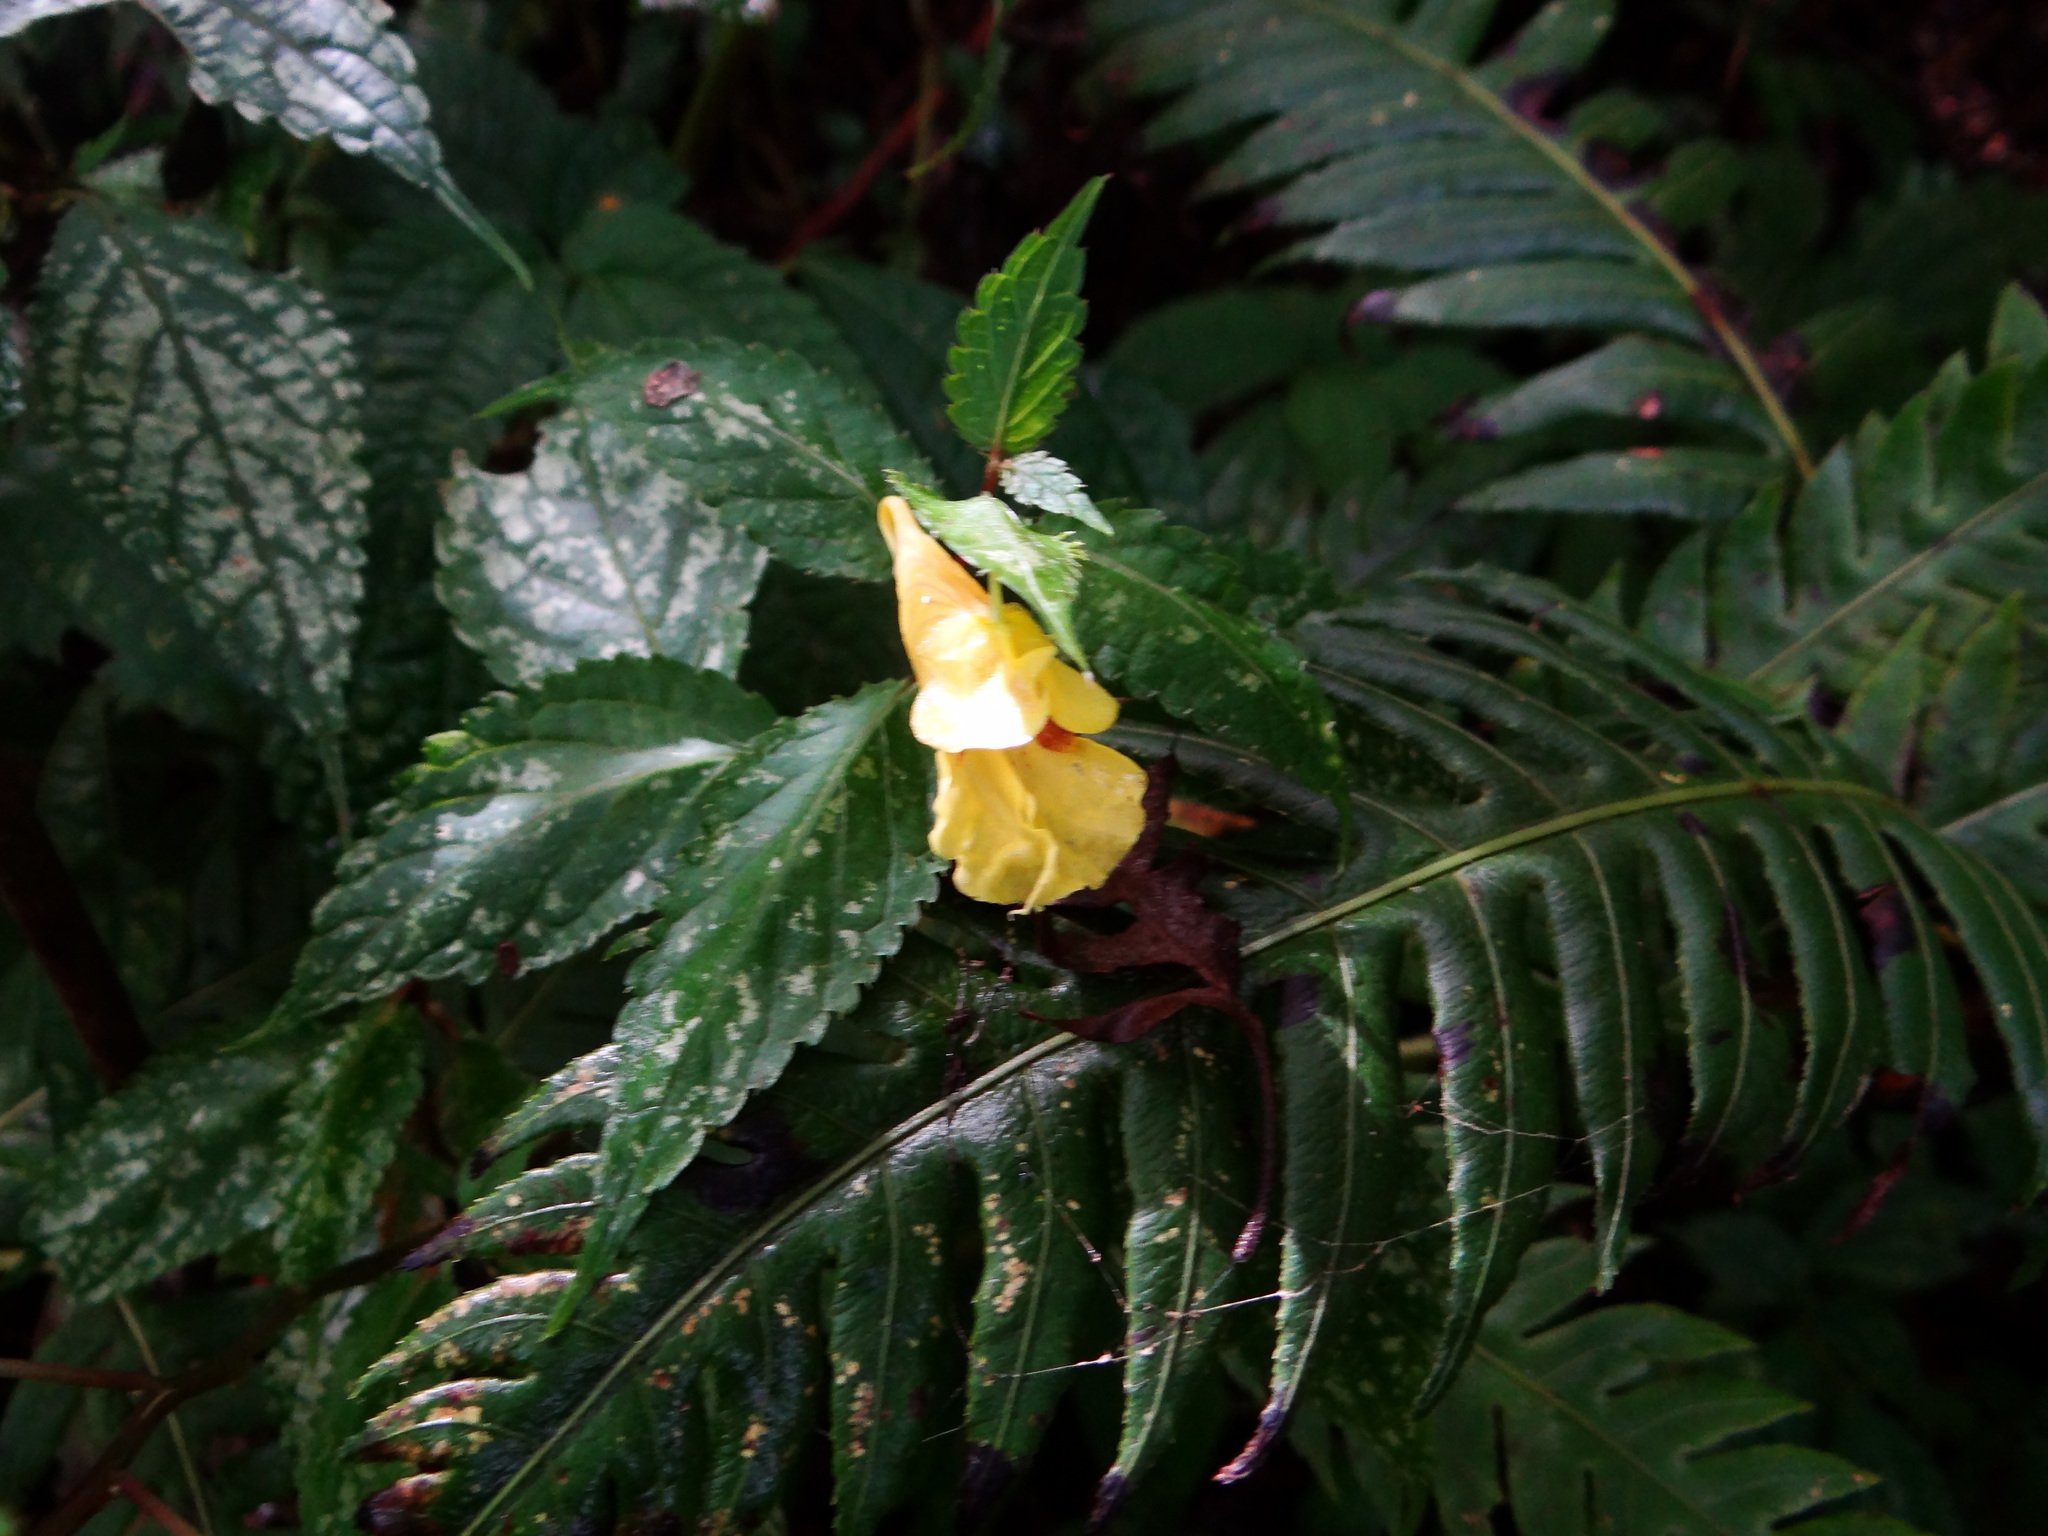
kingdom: Plantae
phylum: Tracheophyta
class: Magnoliopsida
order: Ericales
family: Balsaminaceae
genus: Impatiens
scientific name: Impatiens tayemonii
